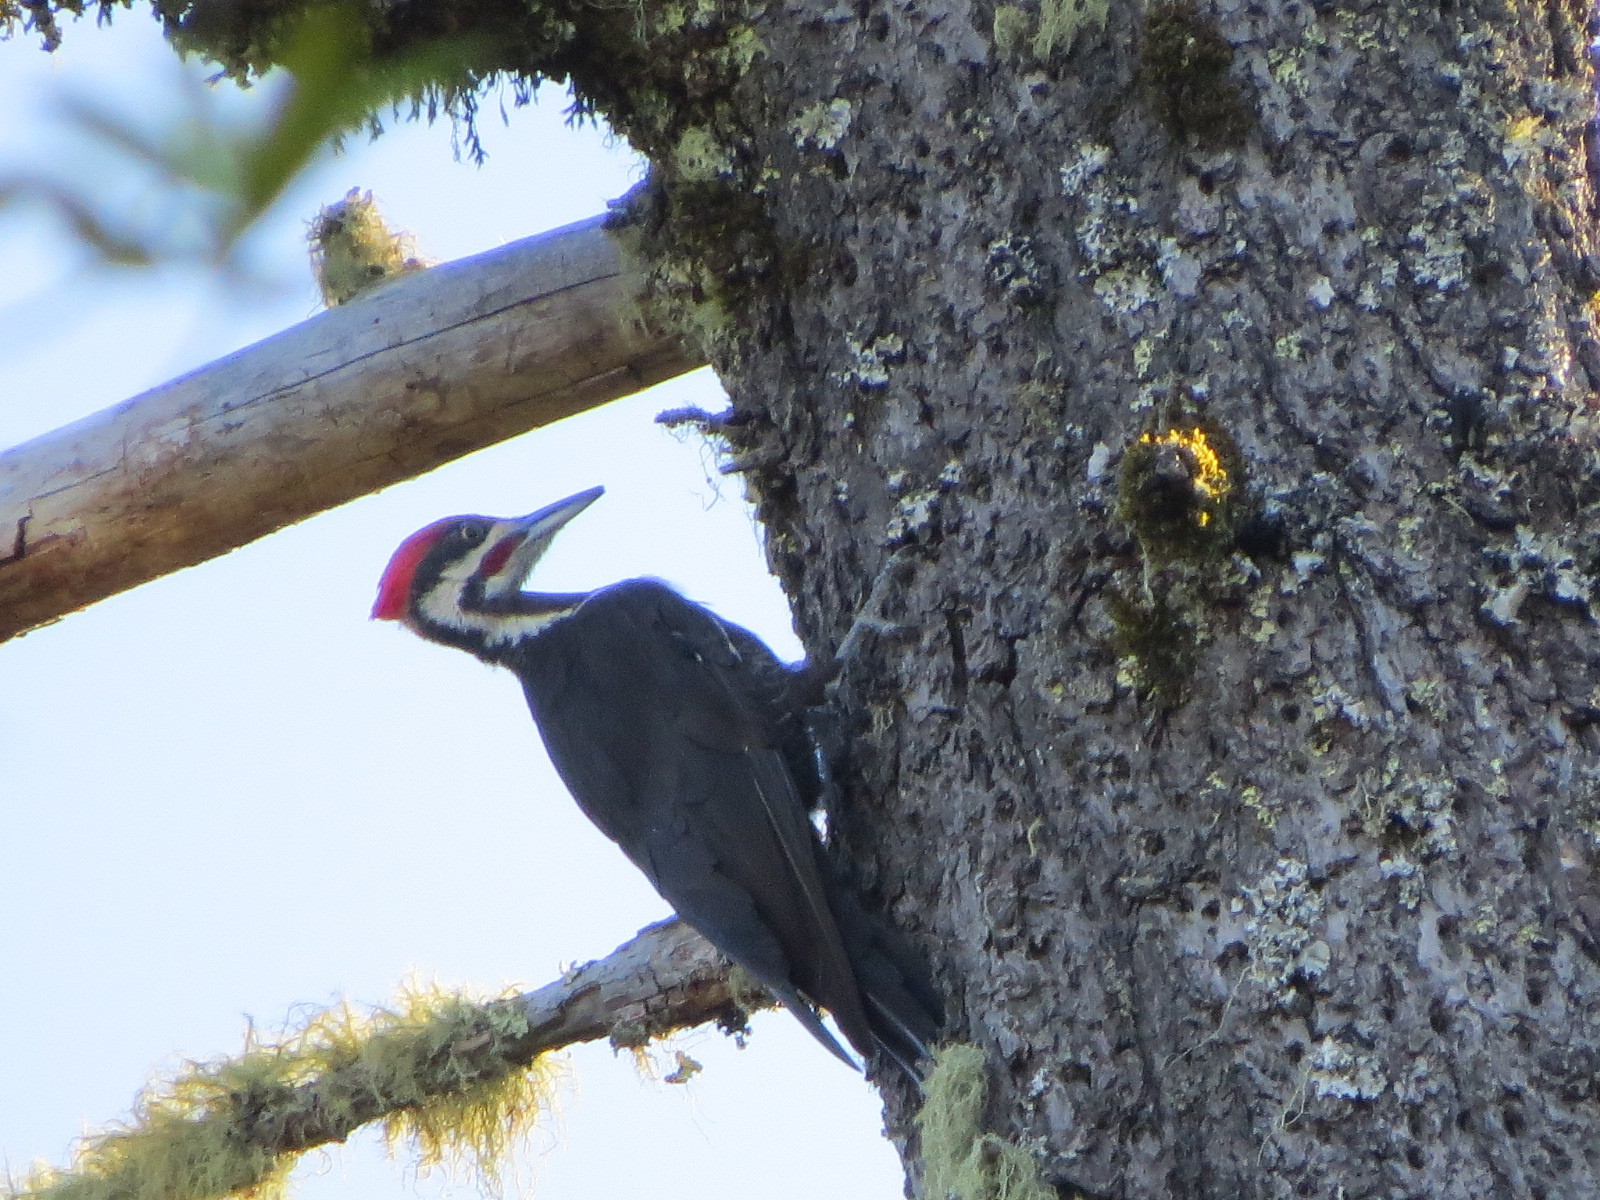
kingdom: Animalia
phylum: Chordata
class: Aves
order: Piciformes
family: Picidae
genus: Dryocopus
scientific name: Dryocopus pileatus
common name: Pileated woodpecker
